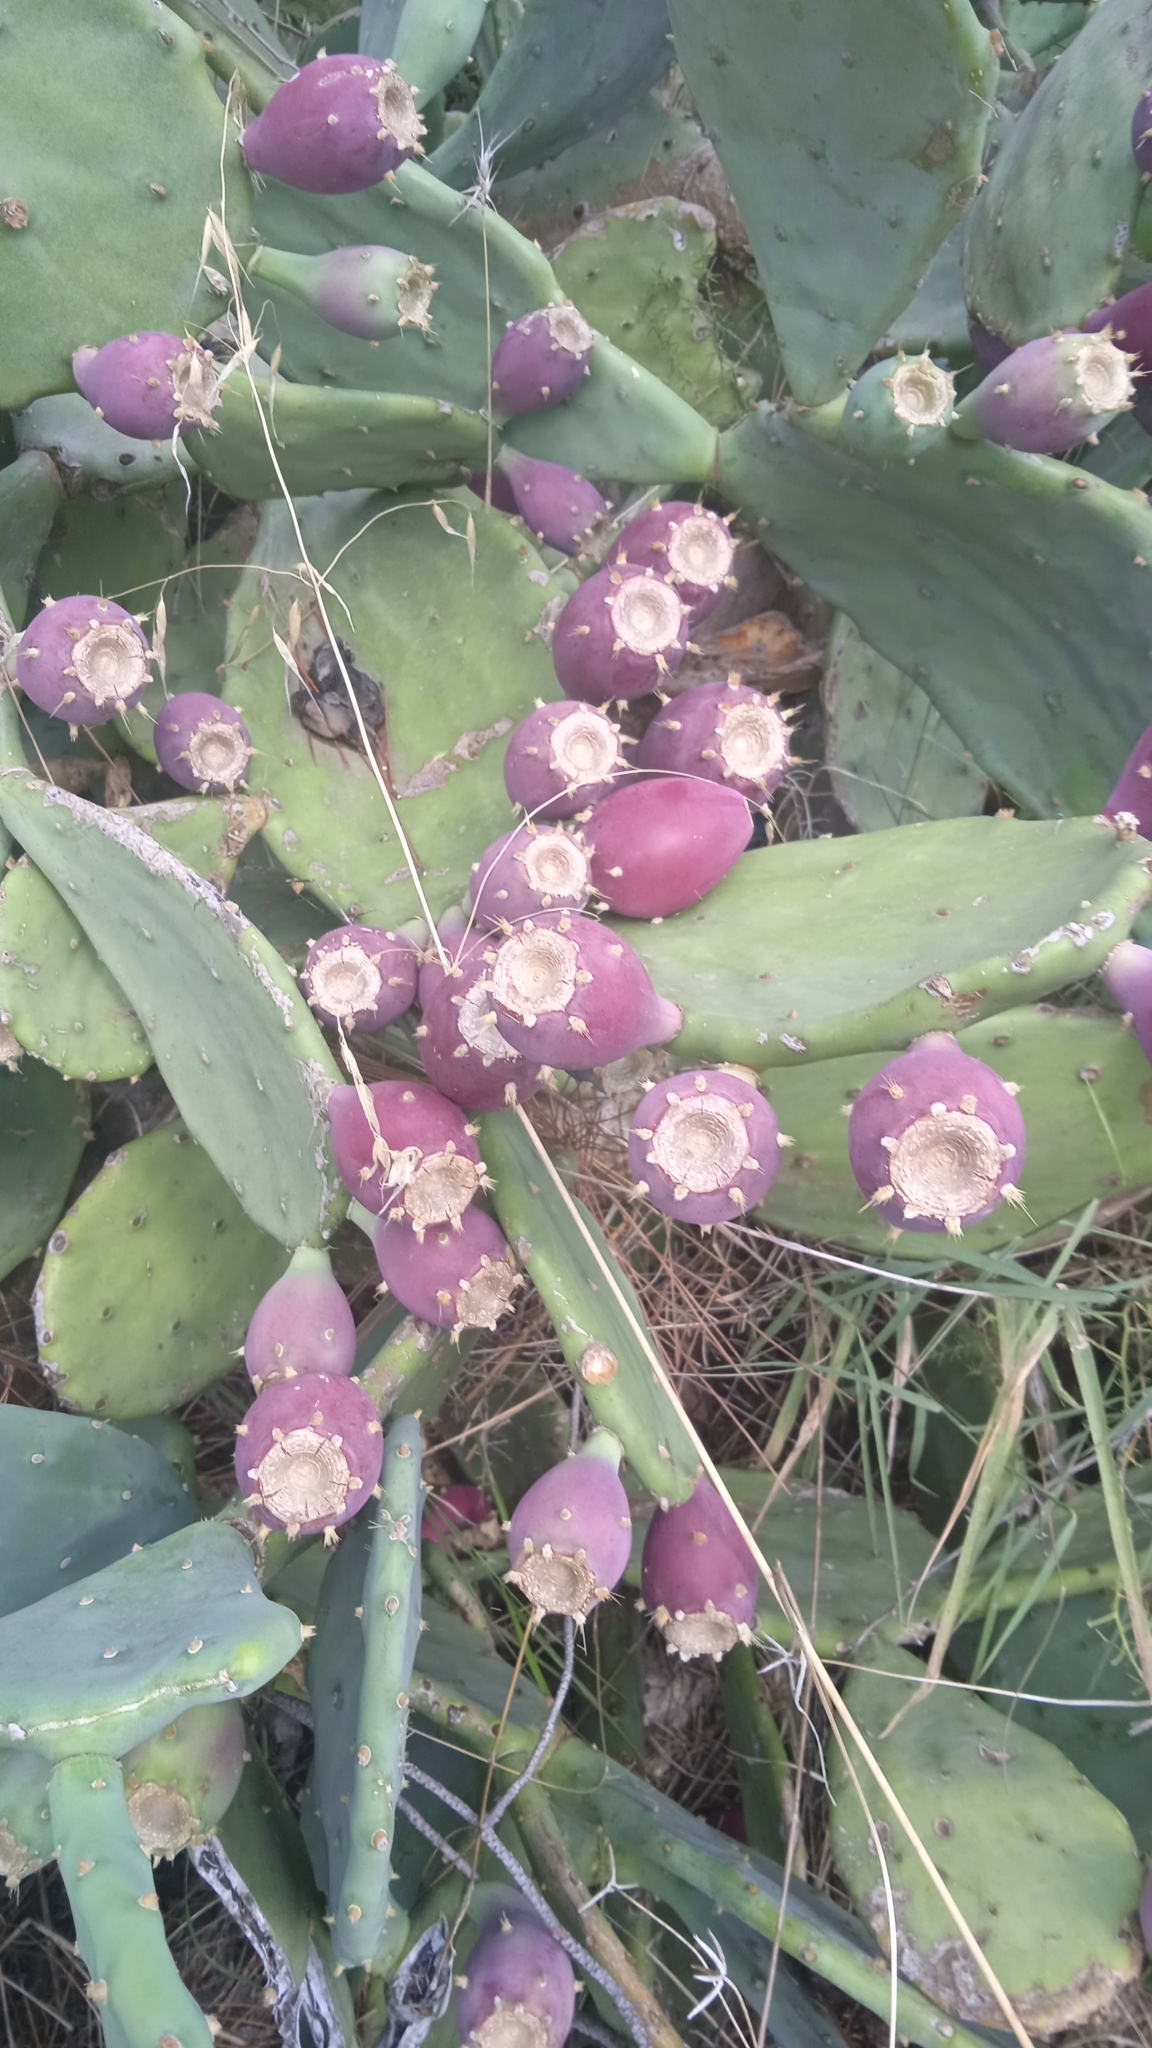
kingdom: Plantae
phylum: Tracheophyta
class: Magnoliopsida
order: Caryophyllales
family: Cactaceae
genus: Opuntia
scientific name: Opuntia anahuacensis
